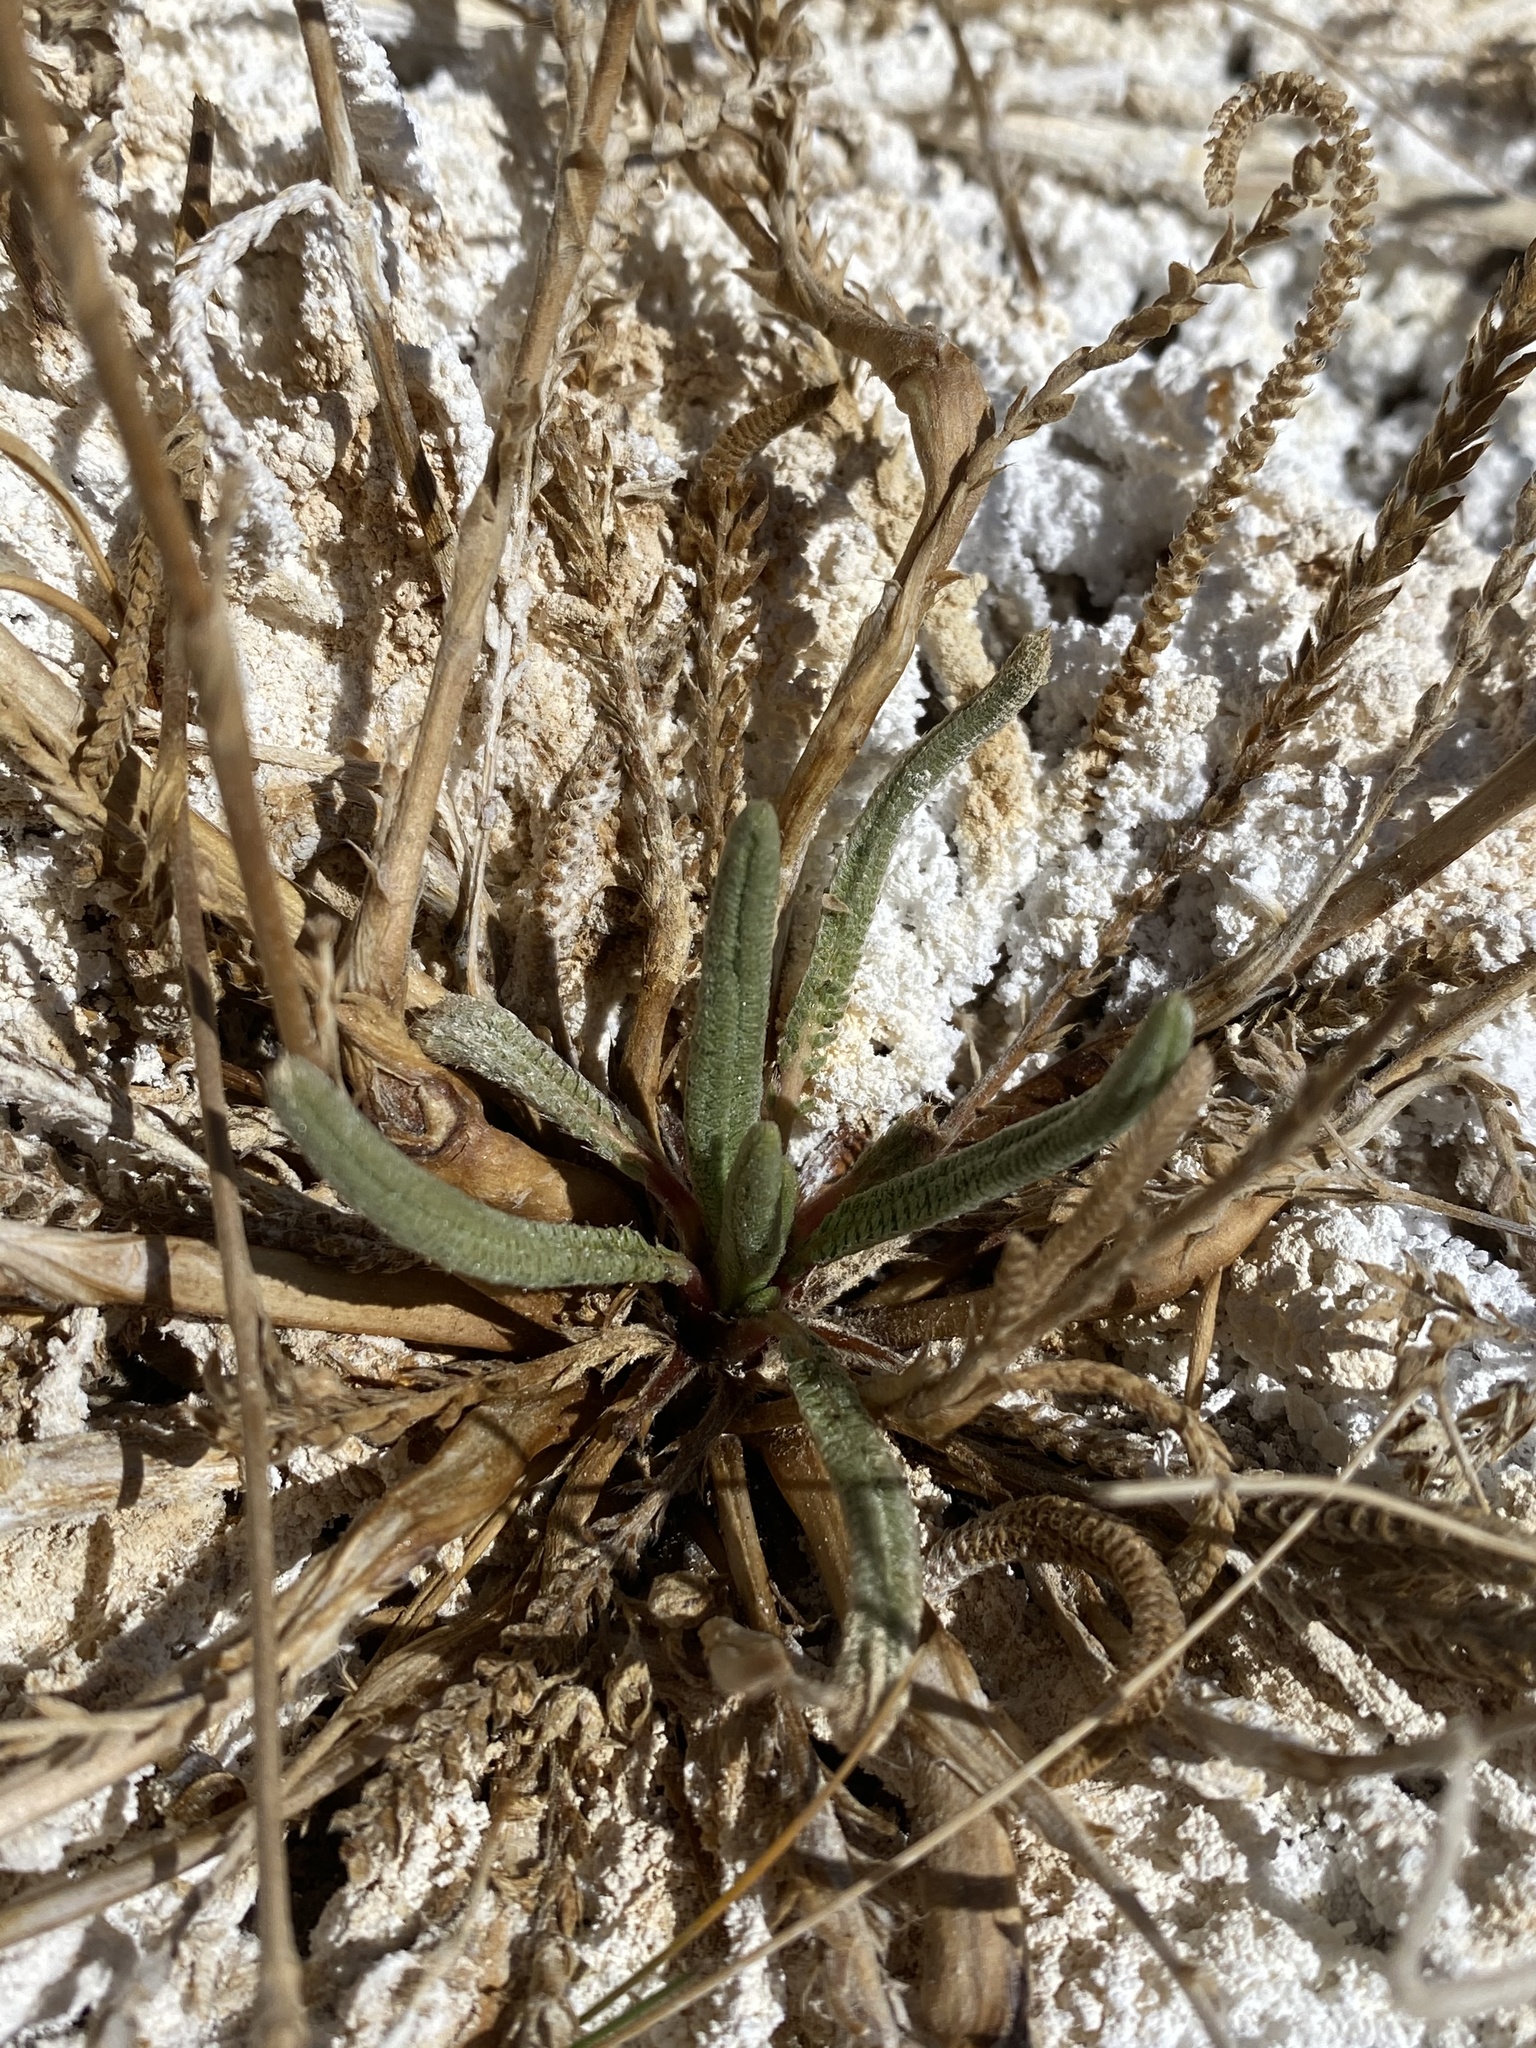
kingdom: Plantae
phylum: Tracheophyta
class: Magnoliopsida
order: Rosales
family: Rosaceae
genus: Potentilla
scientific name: Potentilla kingii
